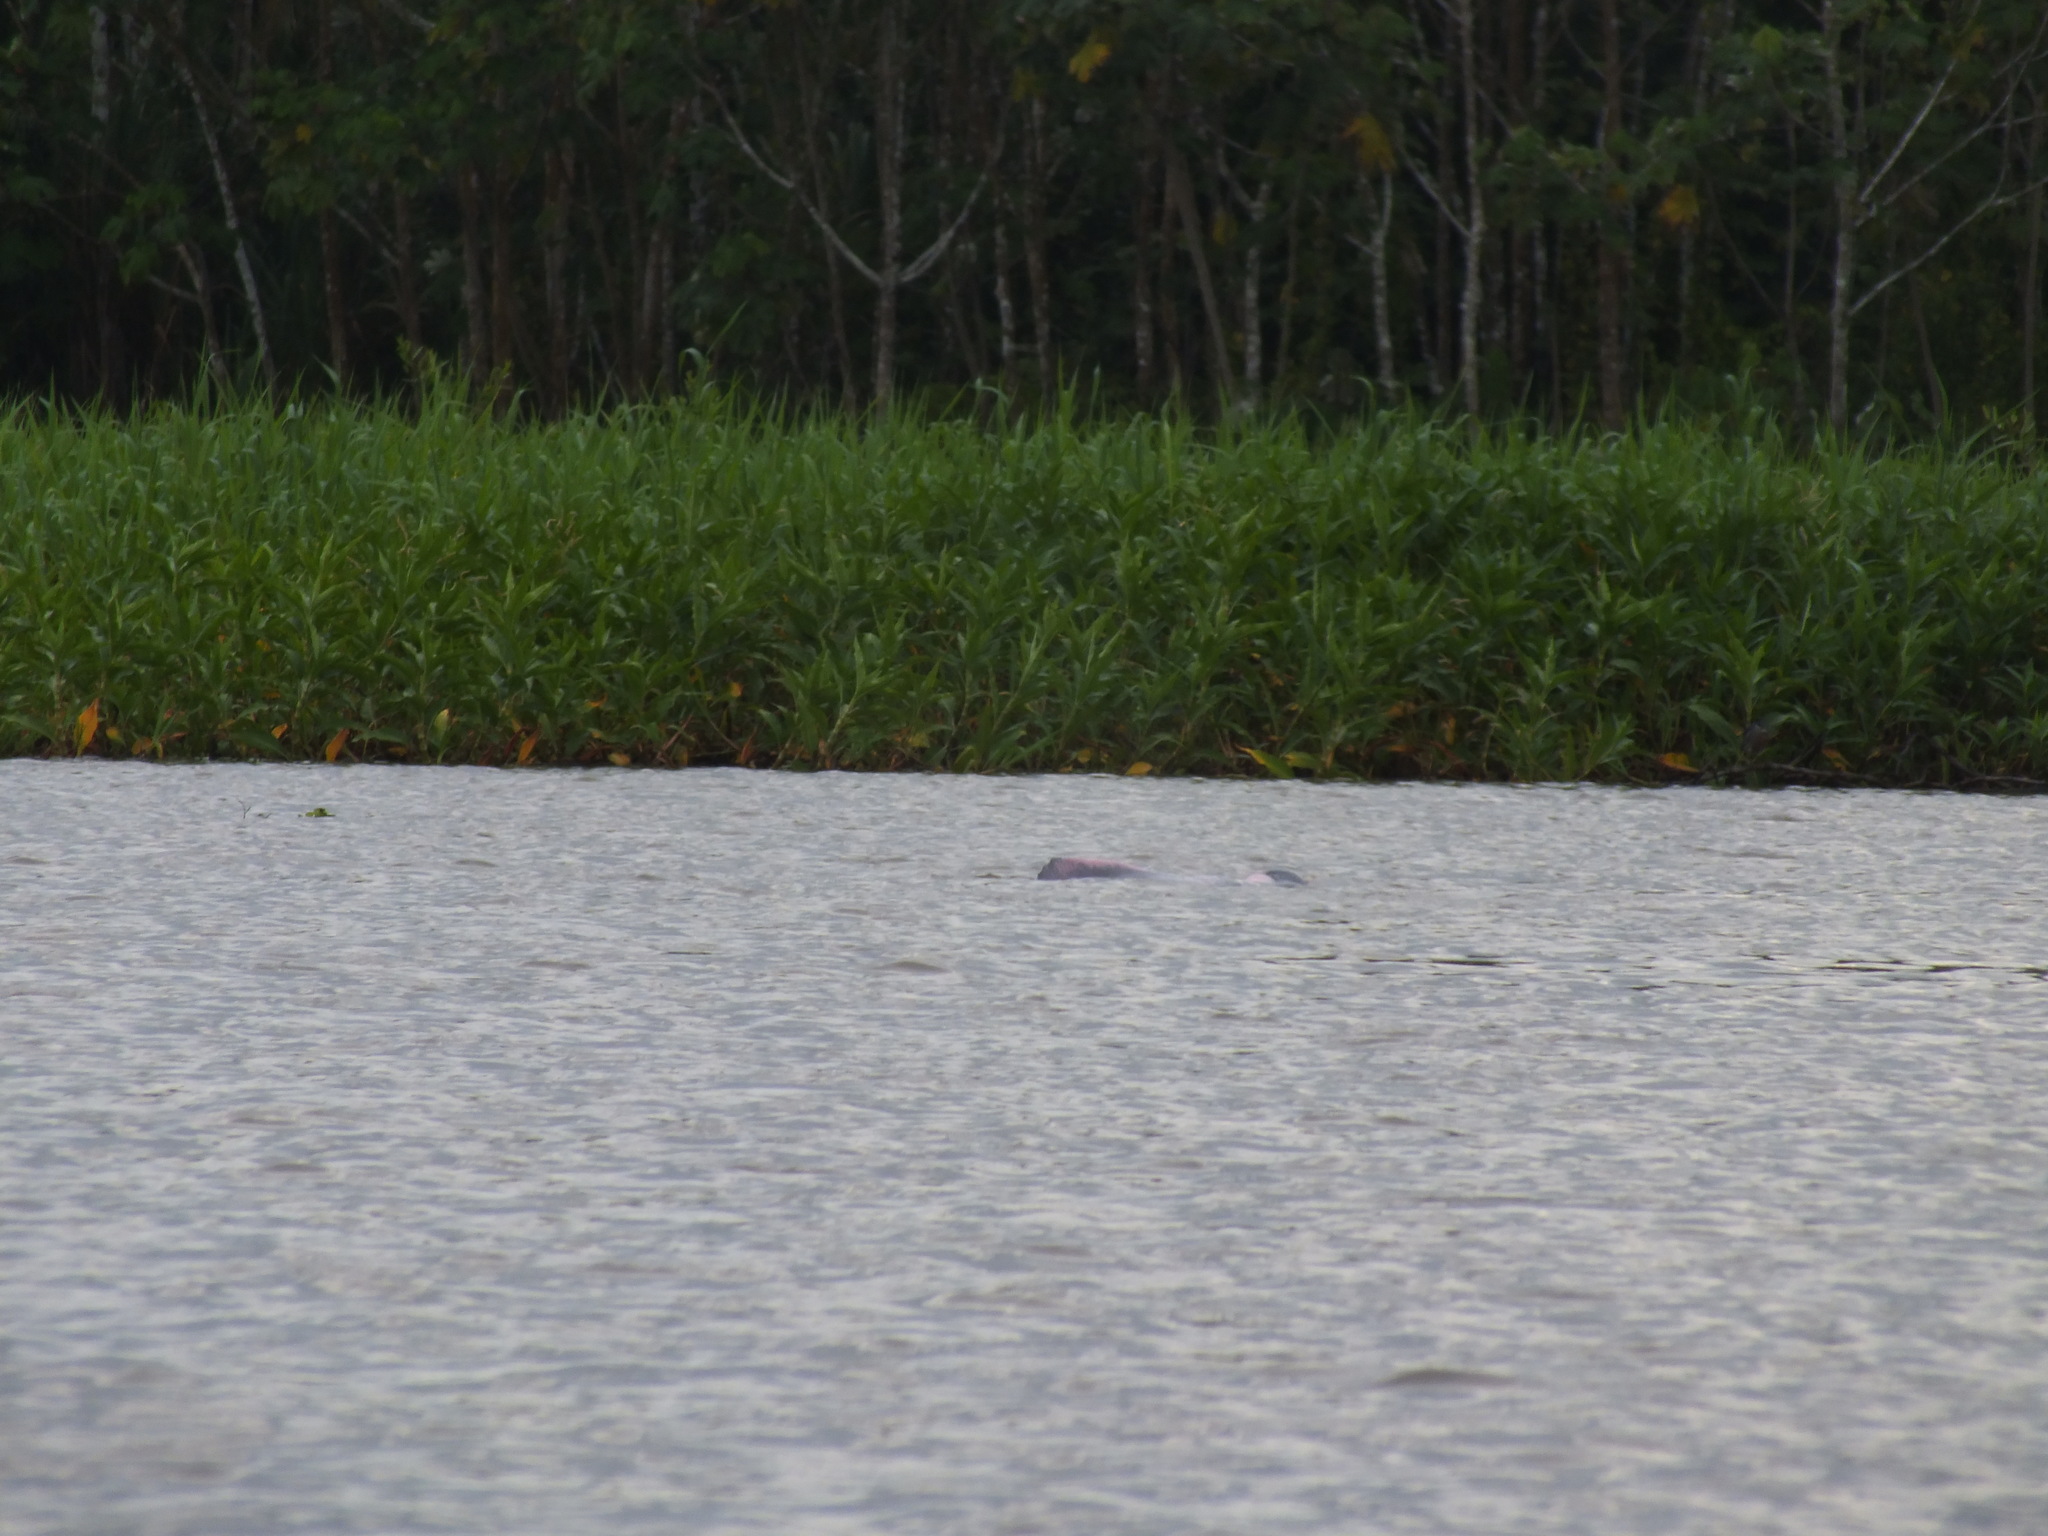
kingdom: Animalia
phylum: Chordata
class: Mammalia
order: Cetacea
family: Iniidae
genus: Inia
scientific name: Inia geoffrensis
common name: Amazon river dolphin
